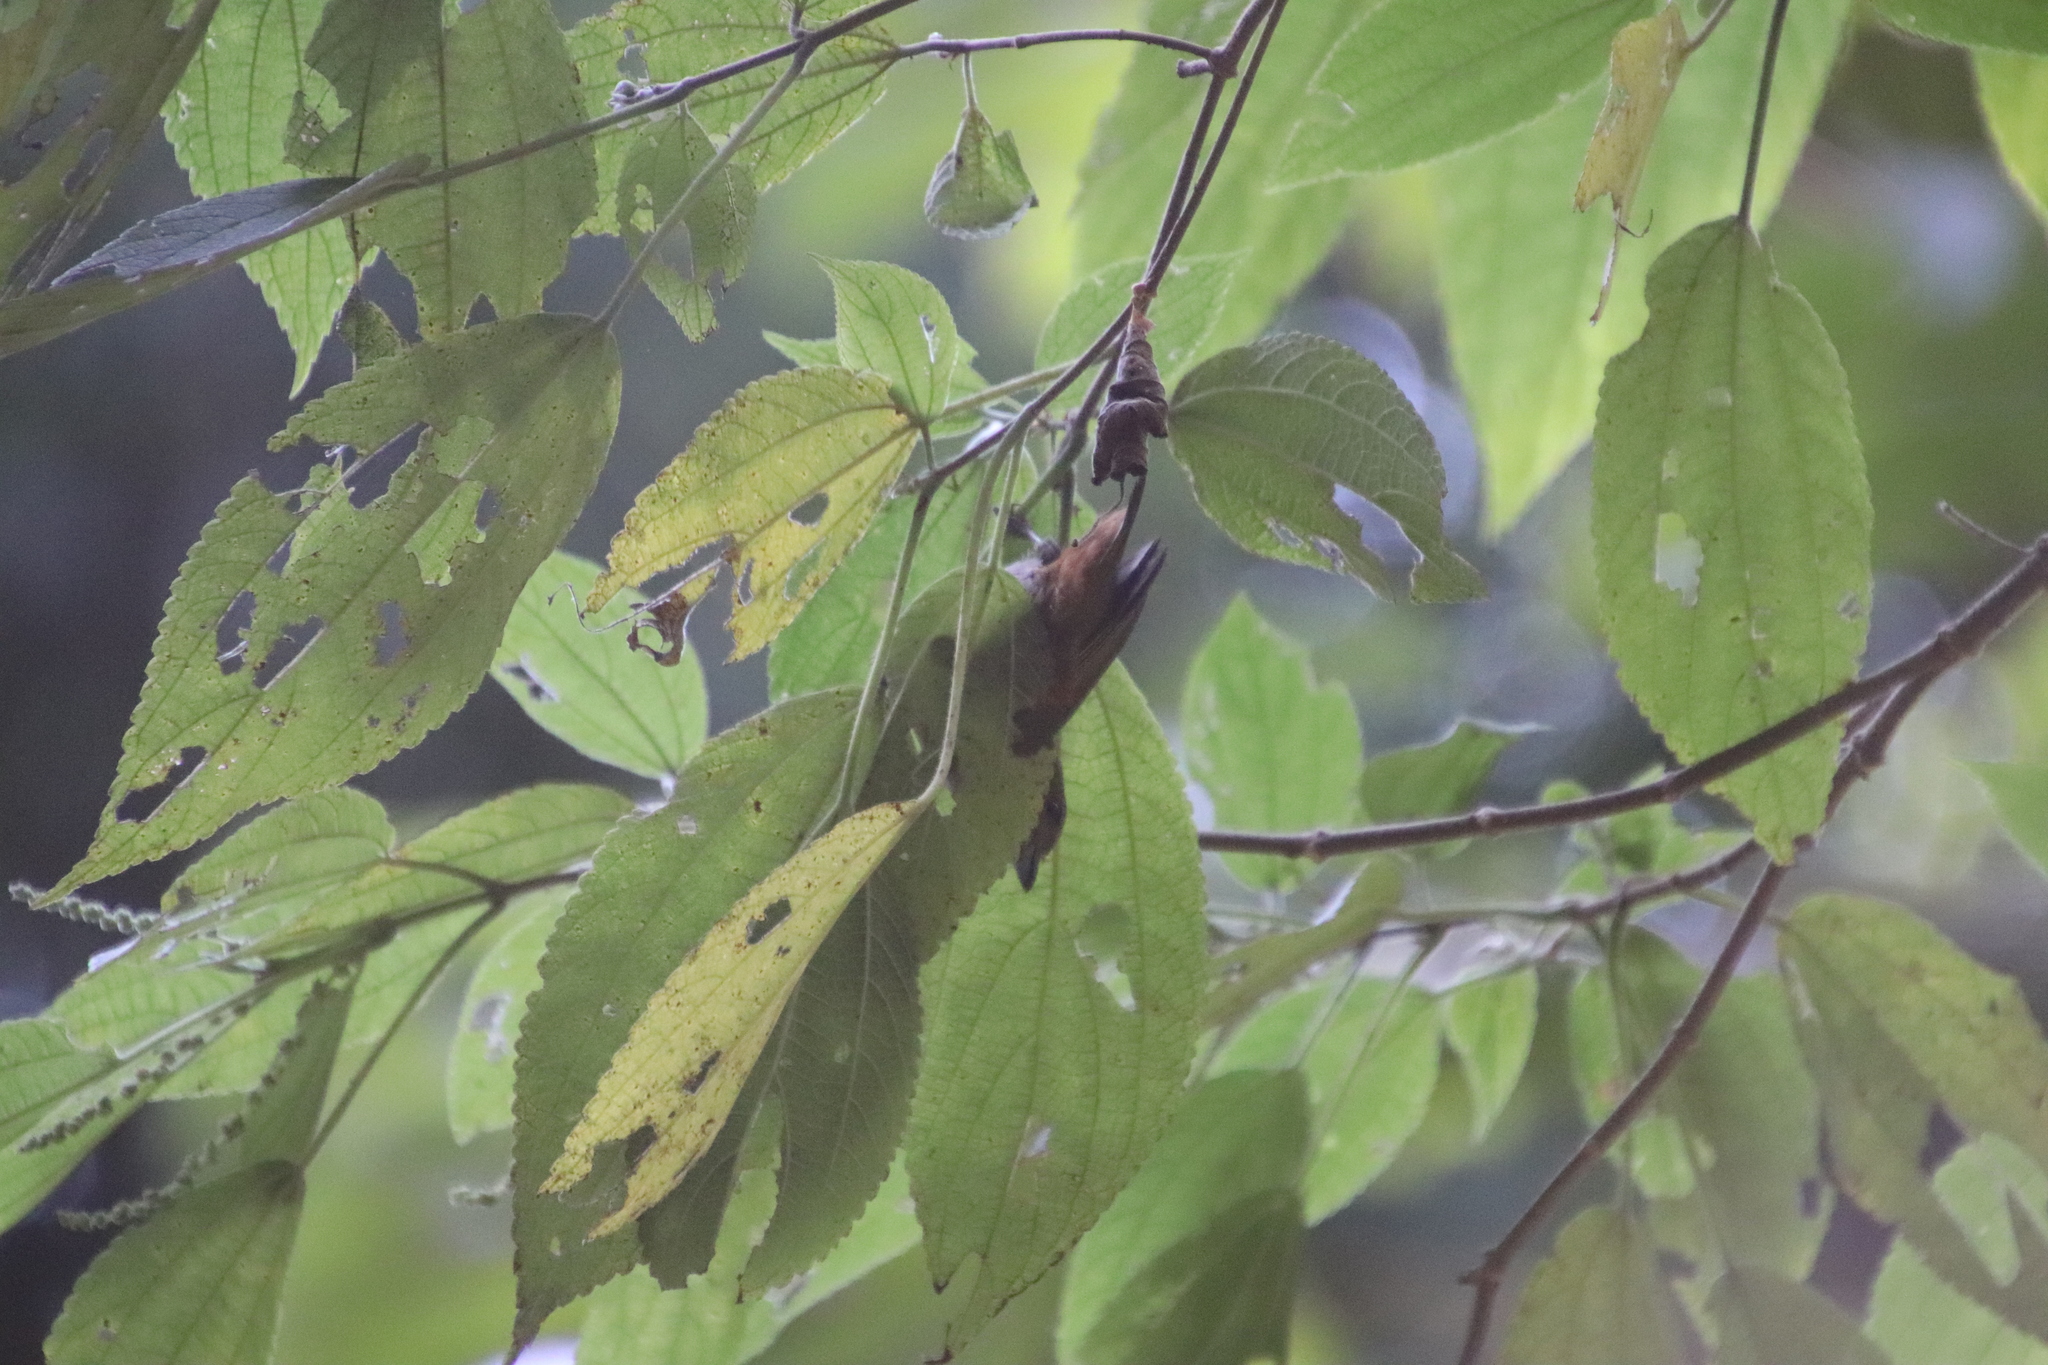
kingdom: Animalia
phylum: Chordata
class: Aves
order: Passeriformes
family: Fringillidae
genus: Euphonia
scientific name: Euphonia pectoralis
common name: Chestnut-bellied euphonia
